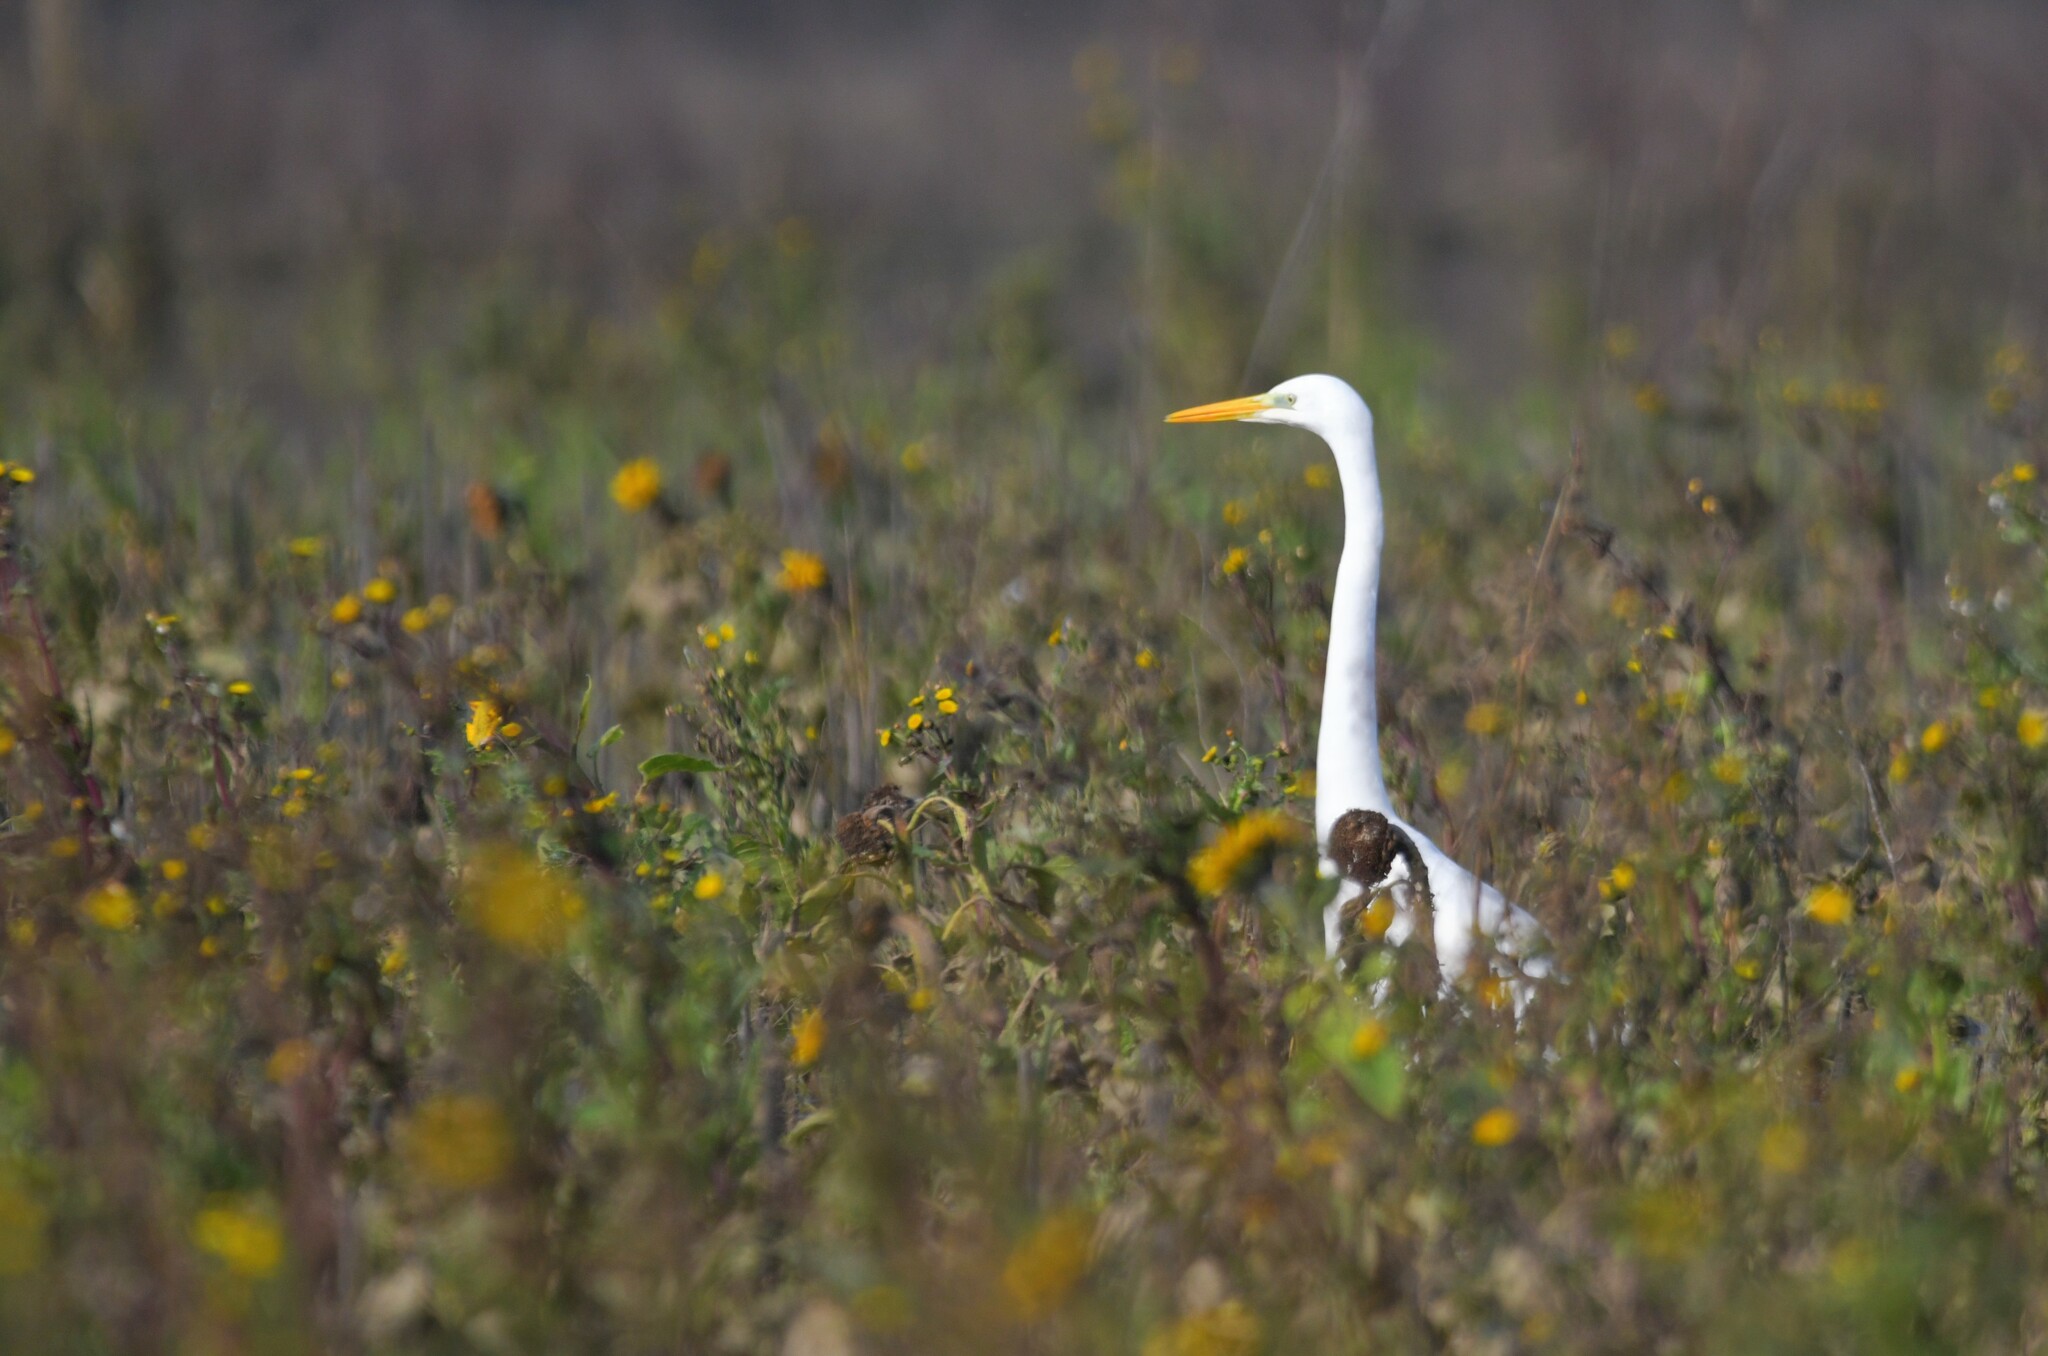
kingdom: Animalia
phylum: Chordata
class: Aves
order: Pelecaniformes
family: Ardeidae
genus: Ardea
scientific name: Ardea alba
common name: Great egret
